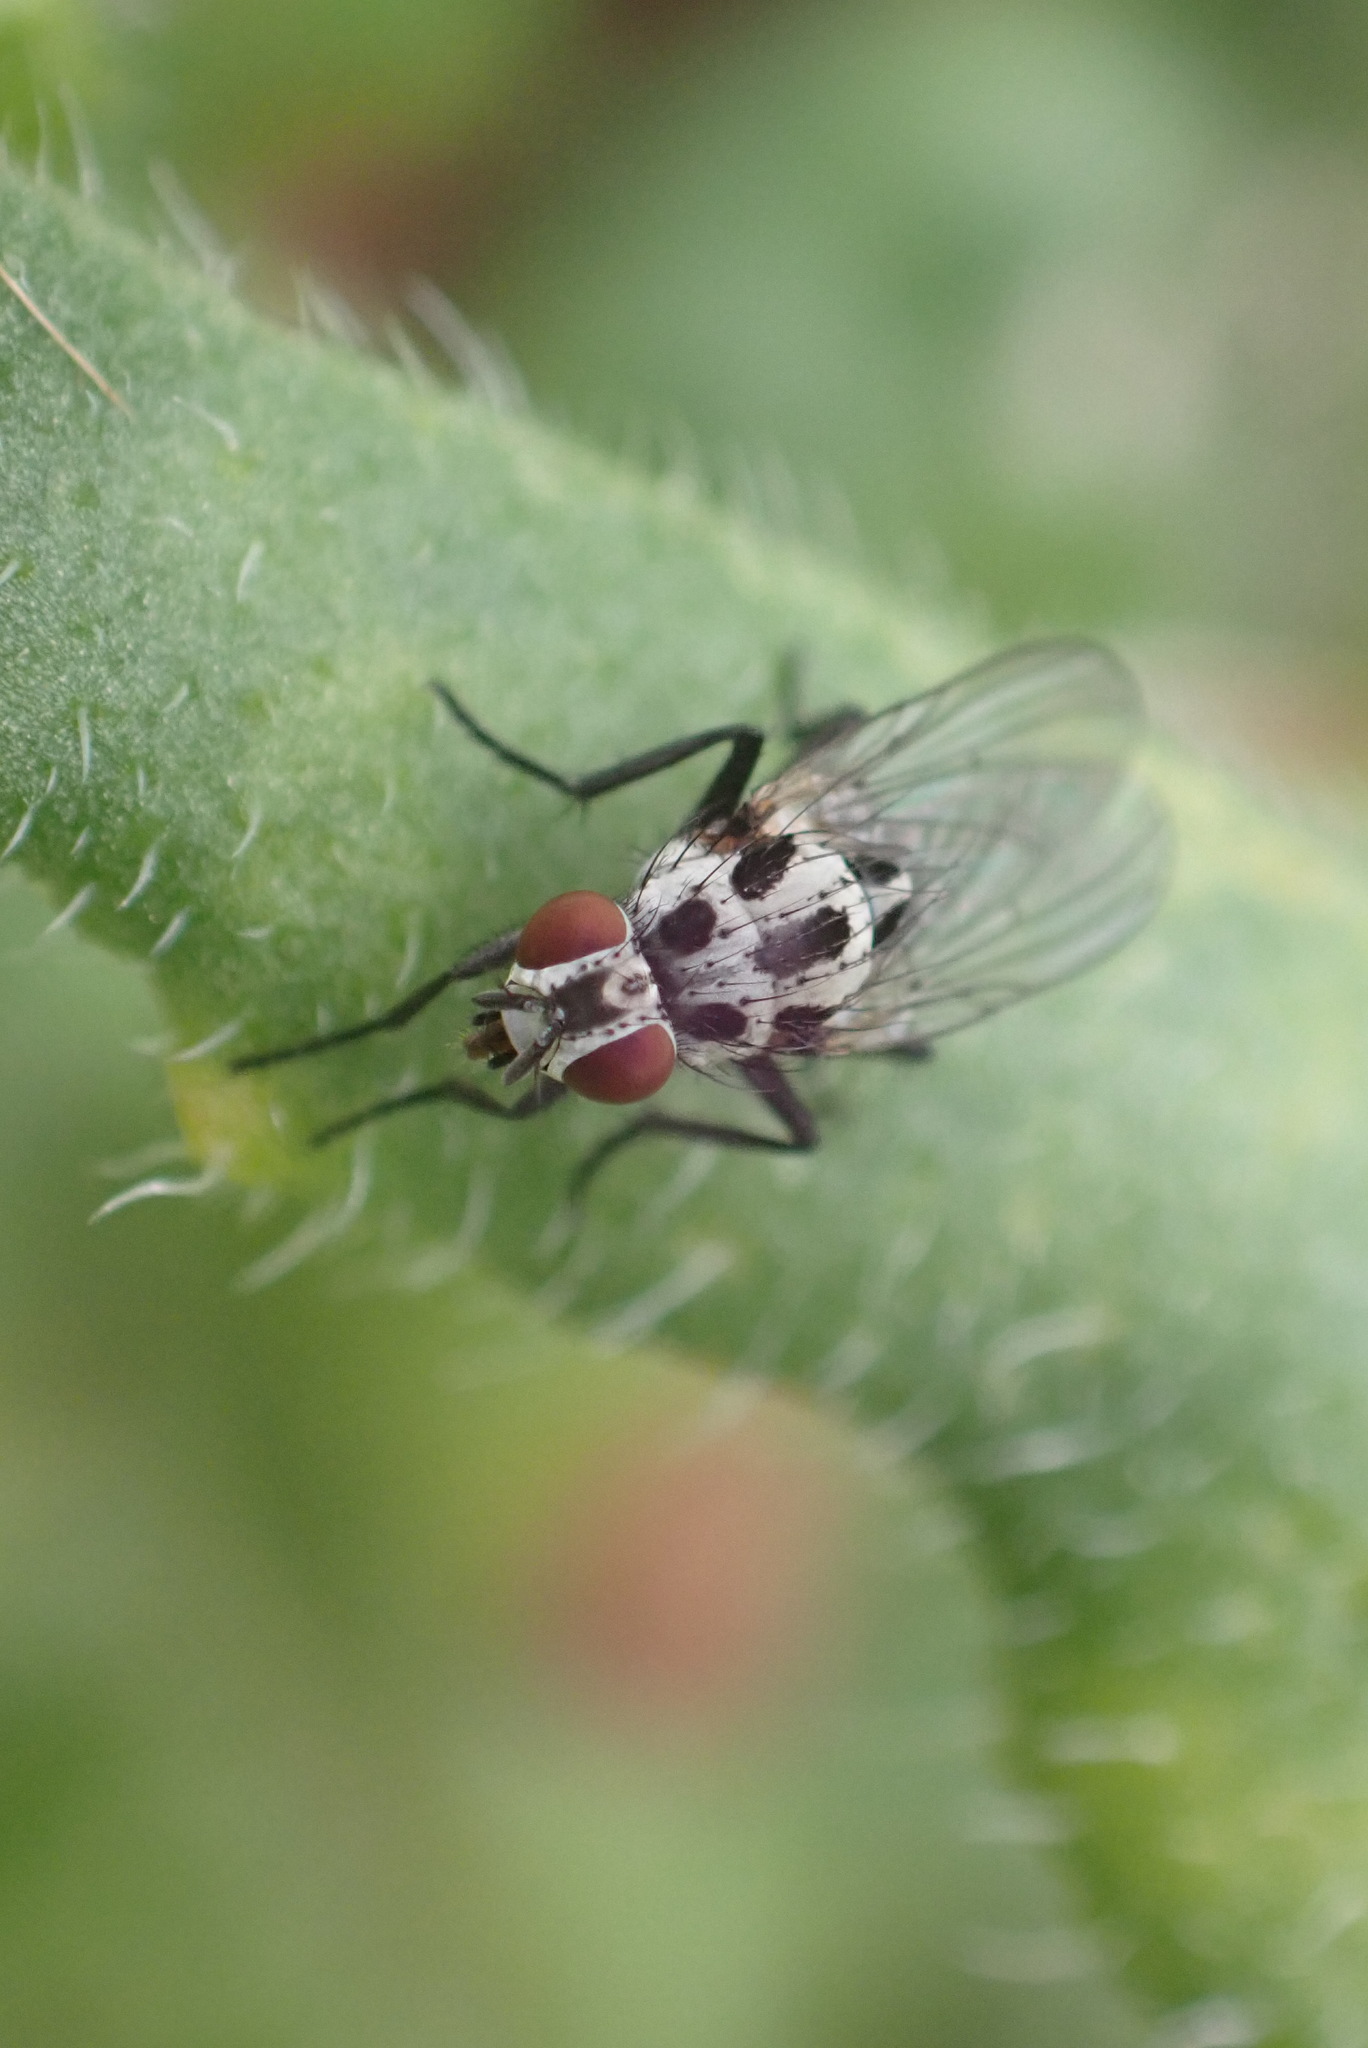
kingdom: Animalia
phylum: Arthropoda
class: Insecta
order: Diptera
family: Anthomyiidae
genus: Anthomyia
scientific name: Anthomyia procellaris
